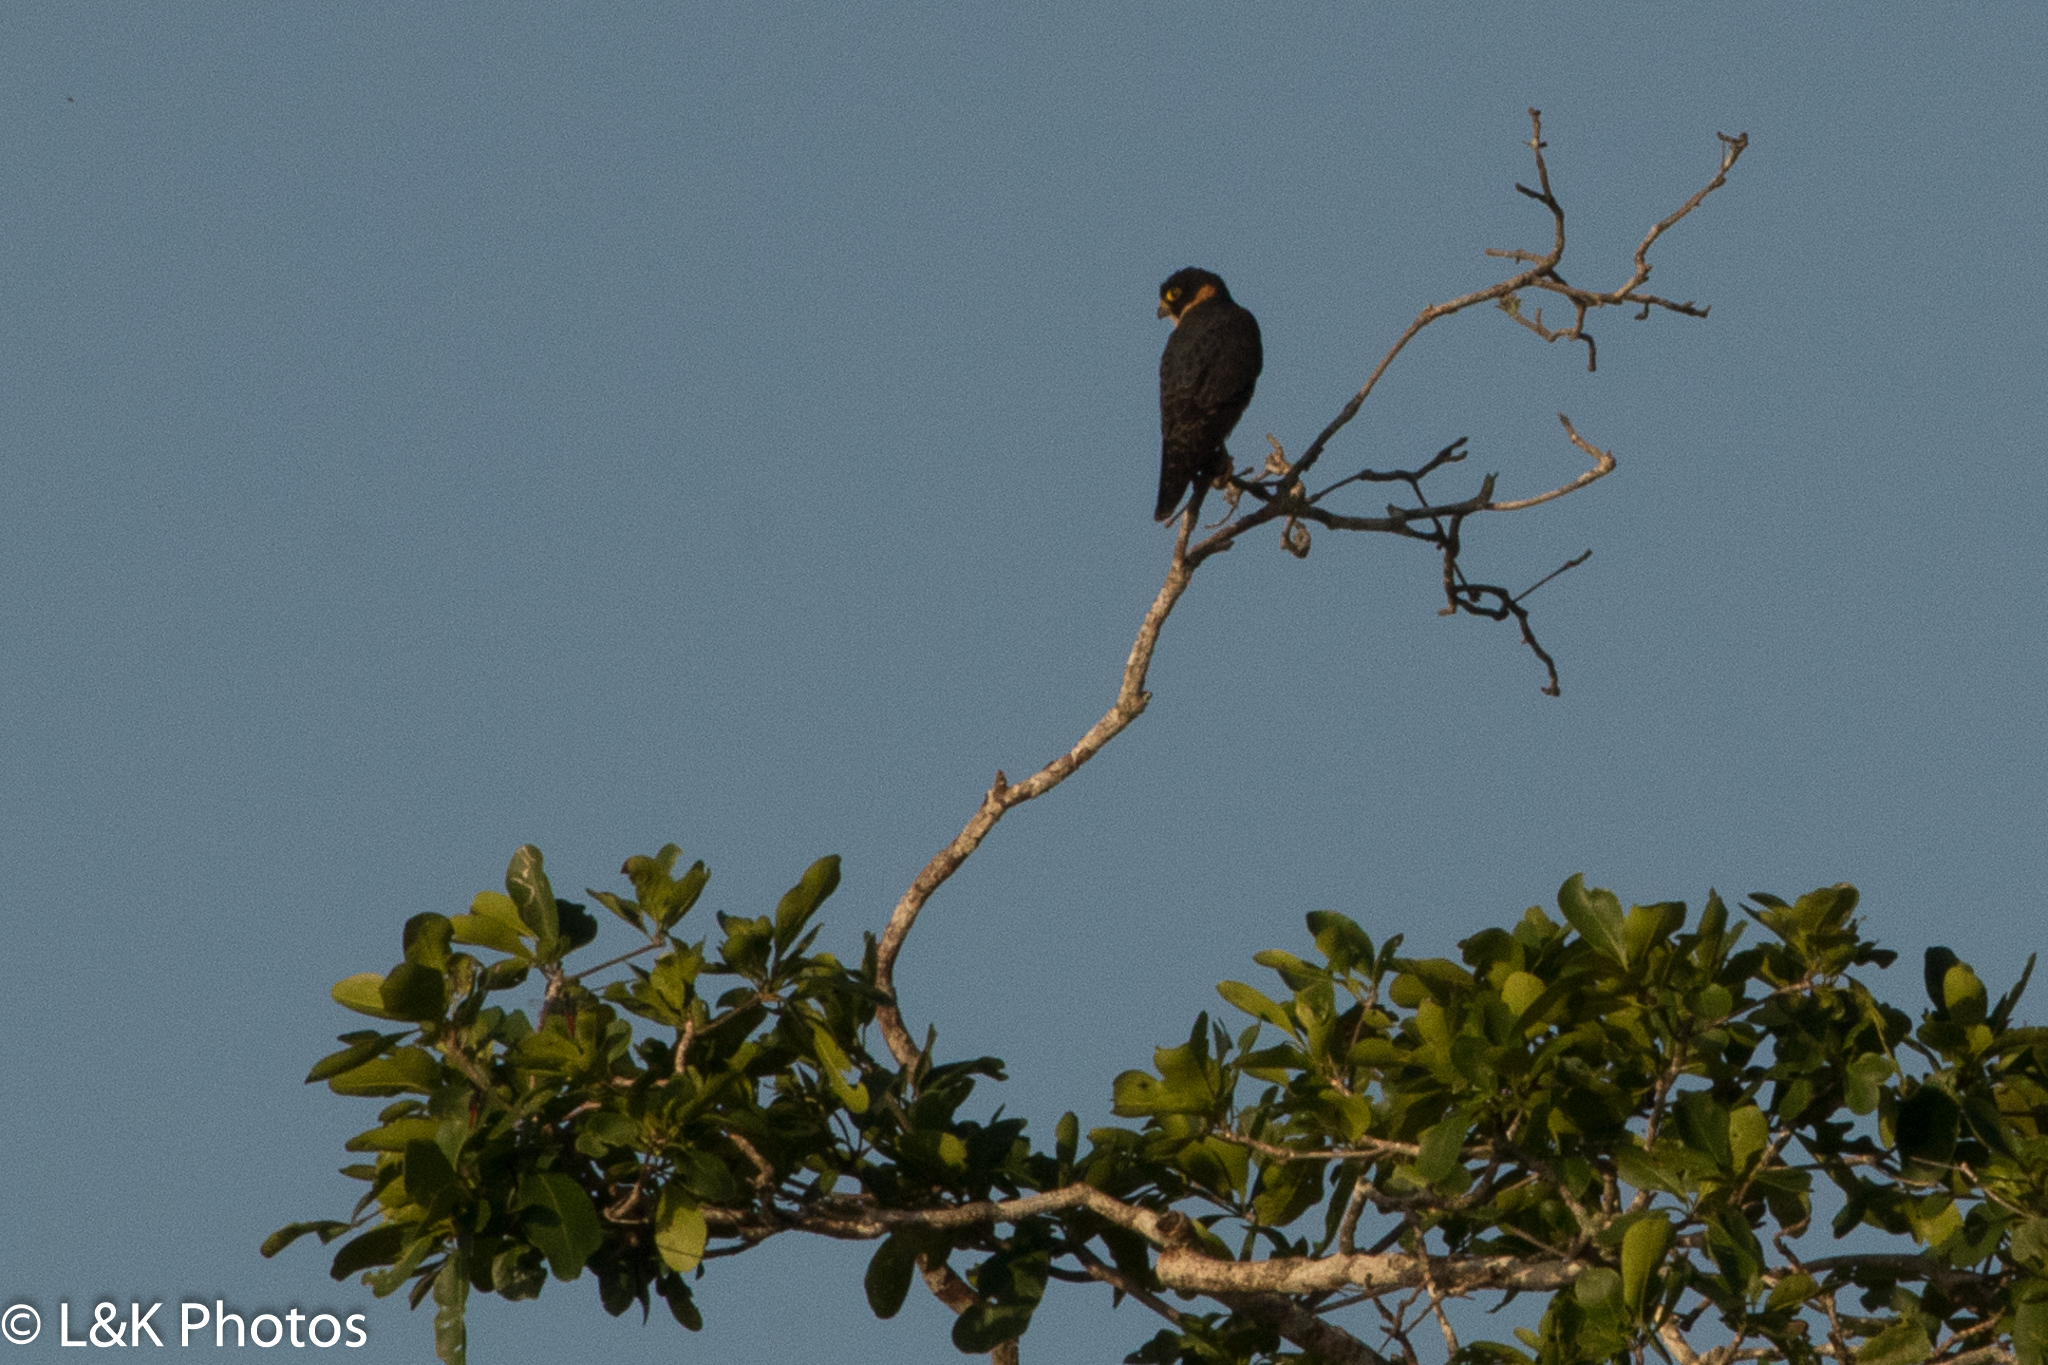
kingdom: Animalia
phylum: Chordata
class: Aves
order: Falconiformes
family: Falconidae
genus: Falco
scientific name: Falco rufigularis
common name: Bat falcon
